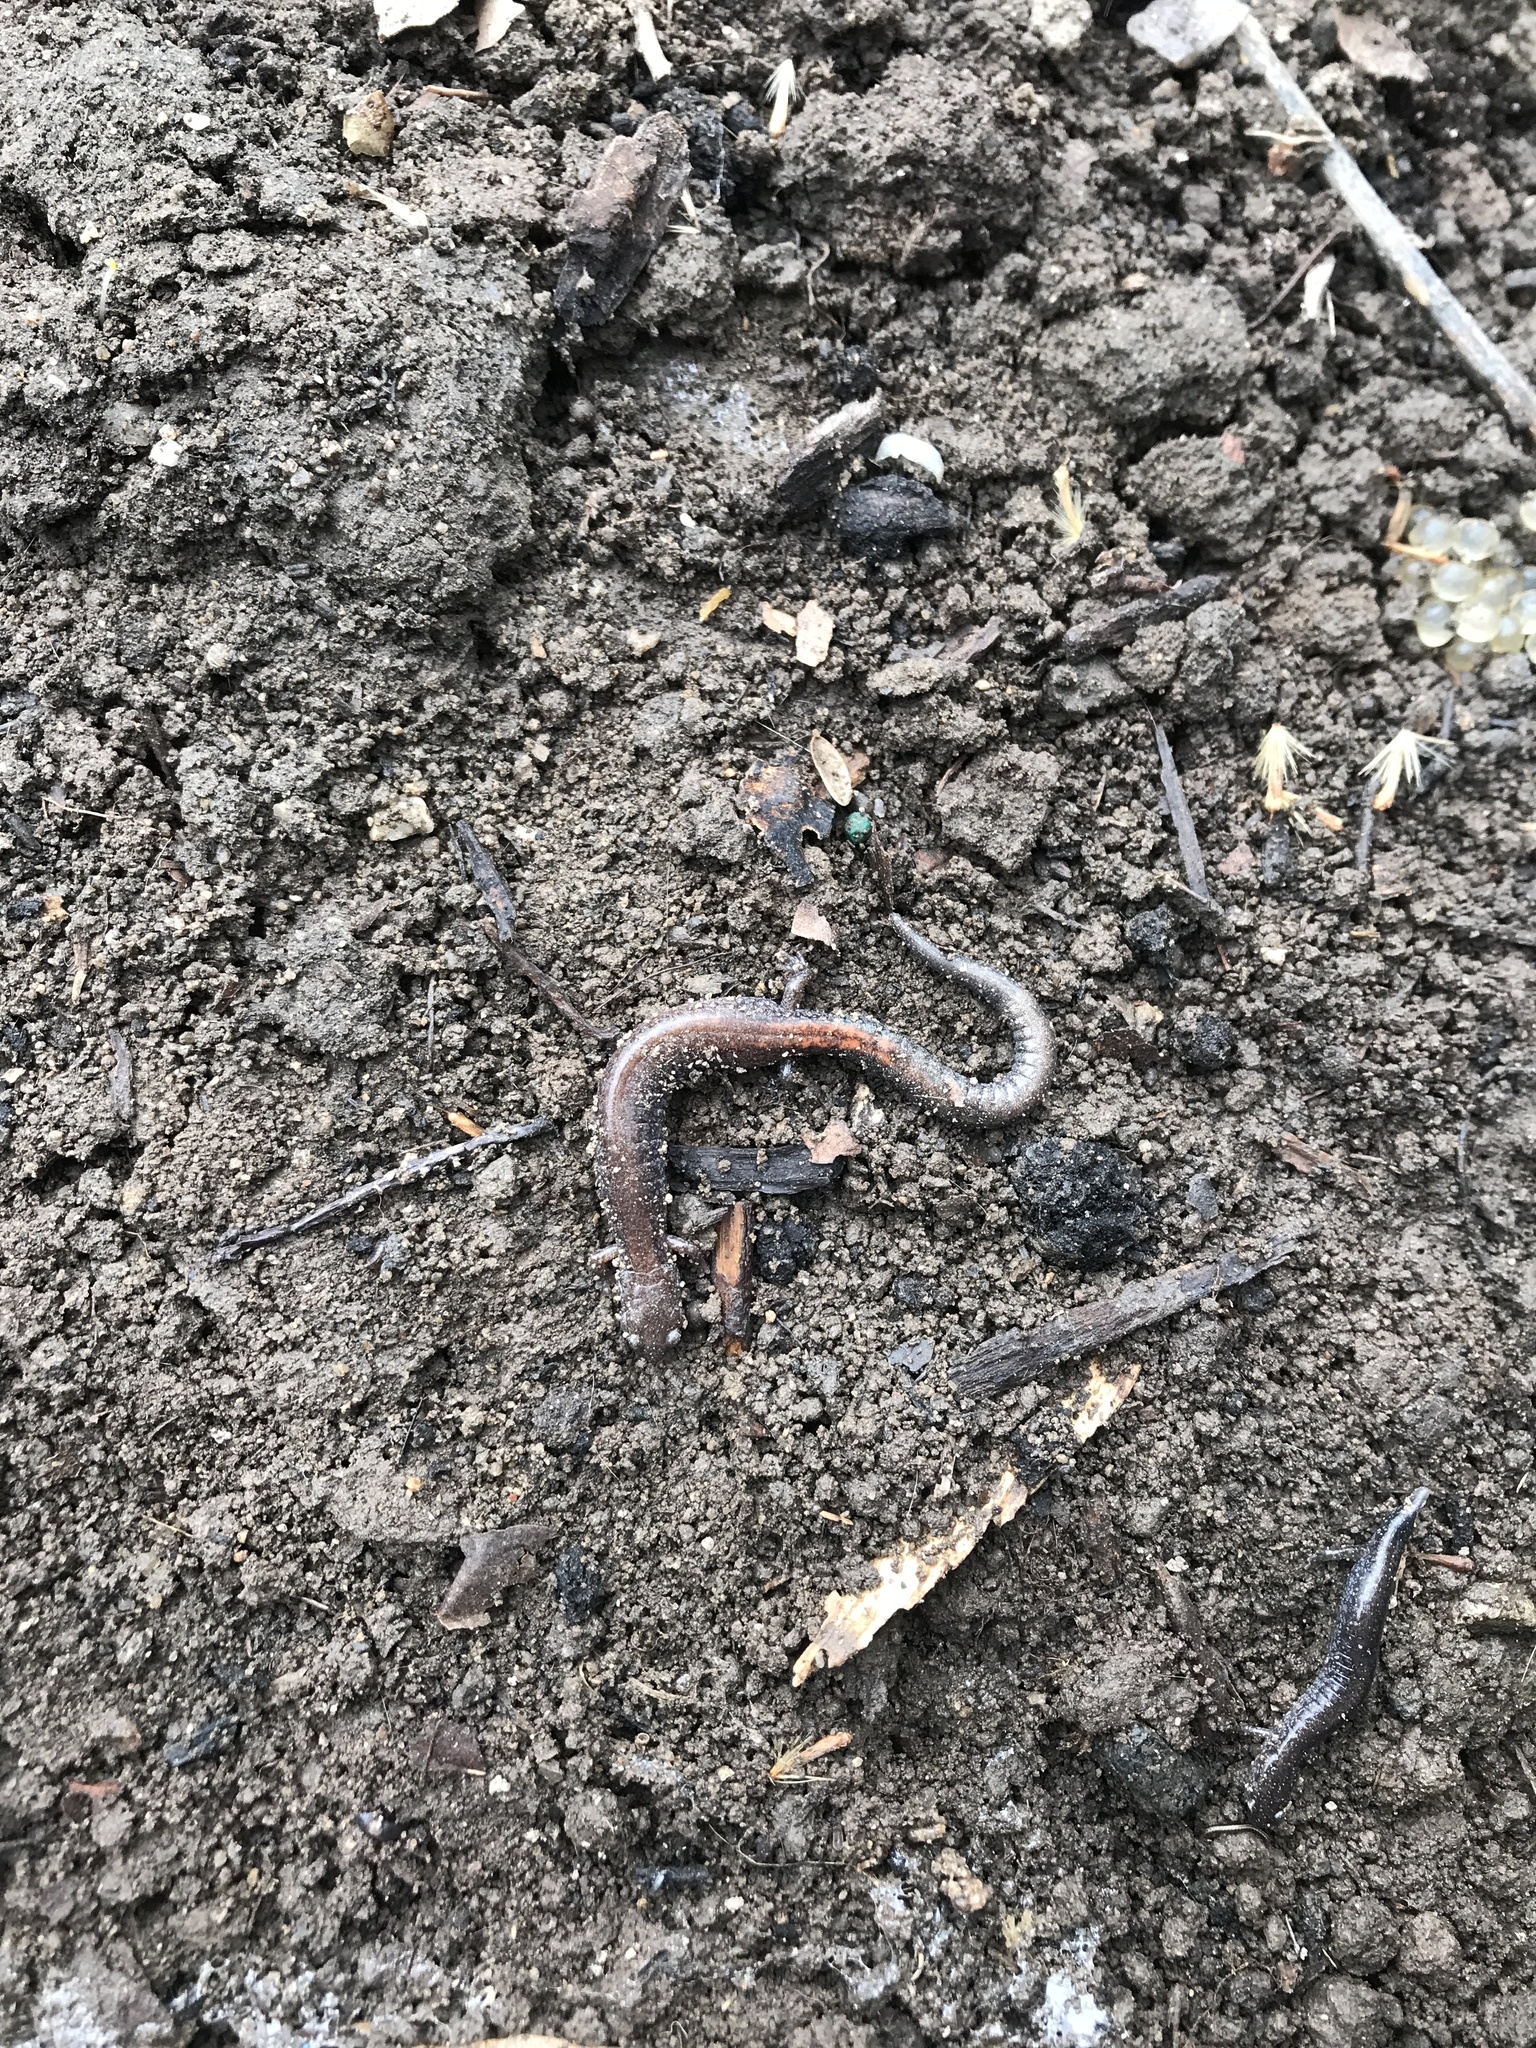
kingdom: Animalia
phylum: Chordata
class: Amphibia
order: Caudata
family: Plethodontidae
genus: Plethodon
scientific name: Plethodon cinereus
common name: Redback salamander
